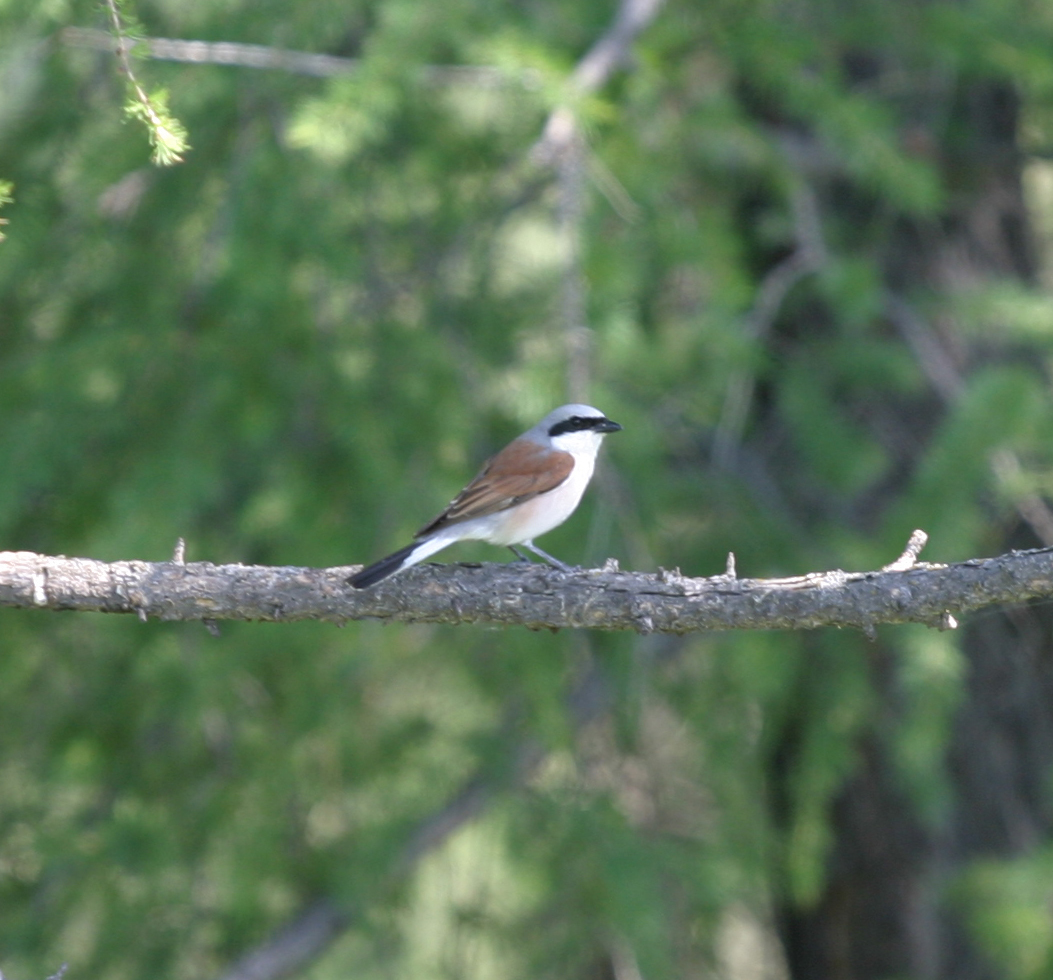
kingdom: Animalia
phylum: Chordata
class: Aves
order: Passeriformes
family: Laniidae
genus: Lanius
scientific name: Lanius collurio
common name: Red-backed shrike
